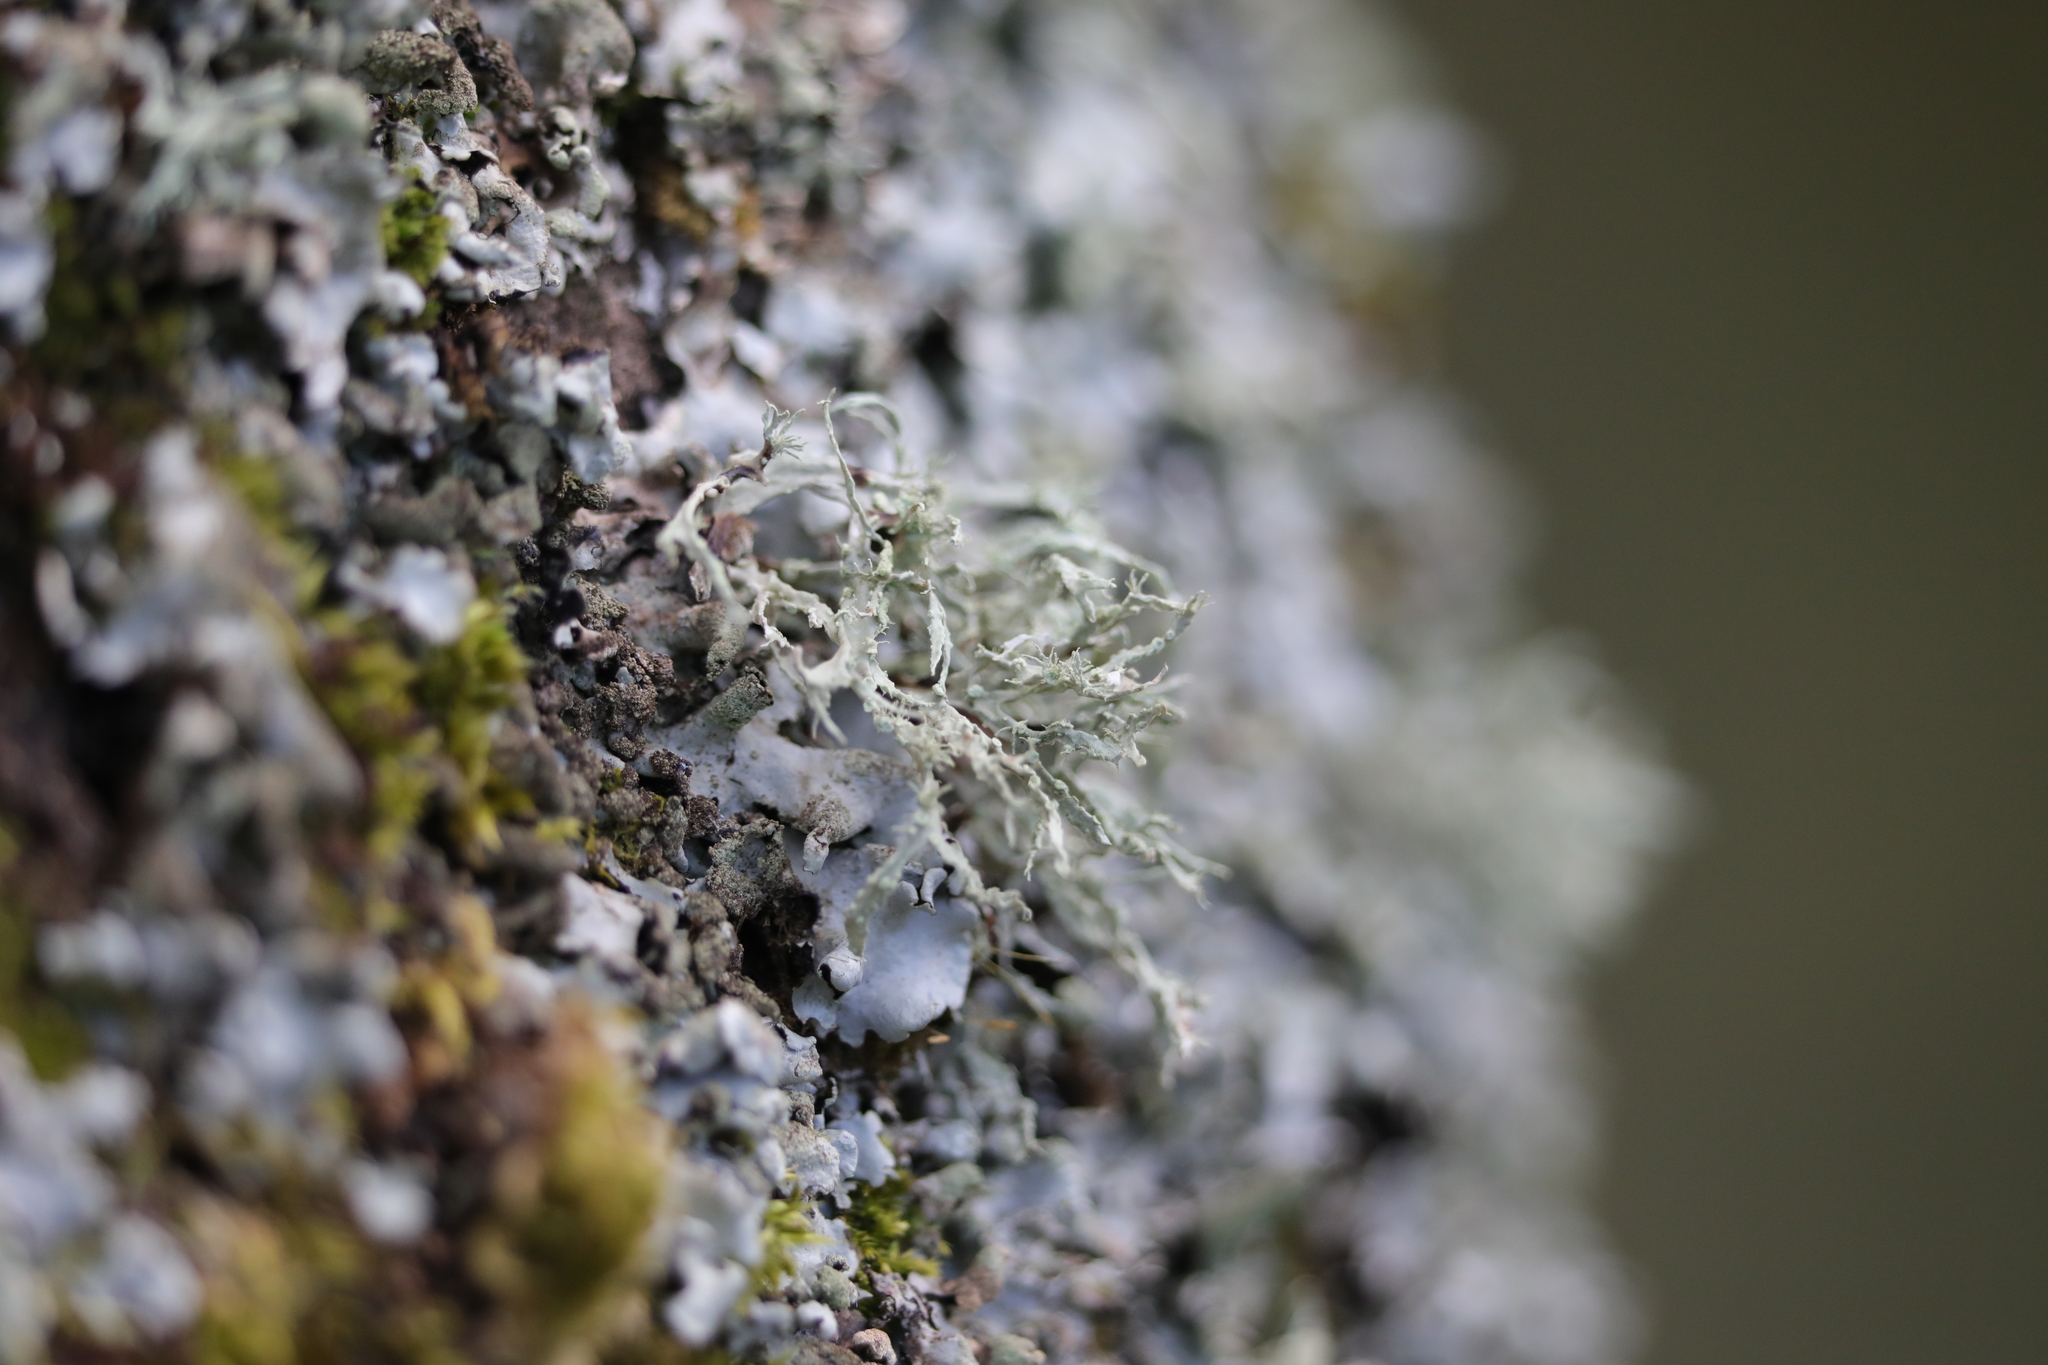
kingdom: Fungi
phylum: Ascomycota
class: Lecanoromycetes
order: Lecanorales
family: Ramalinaceae
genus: Ramalina
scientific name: Ramalina farinacea
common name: Farinose cartilage lichen
